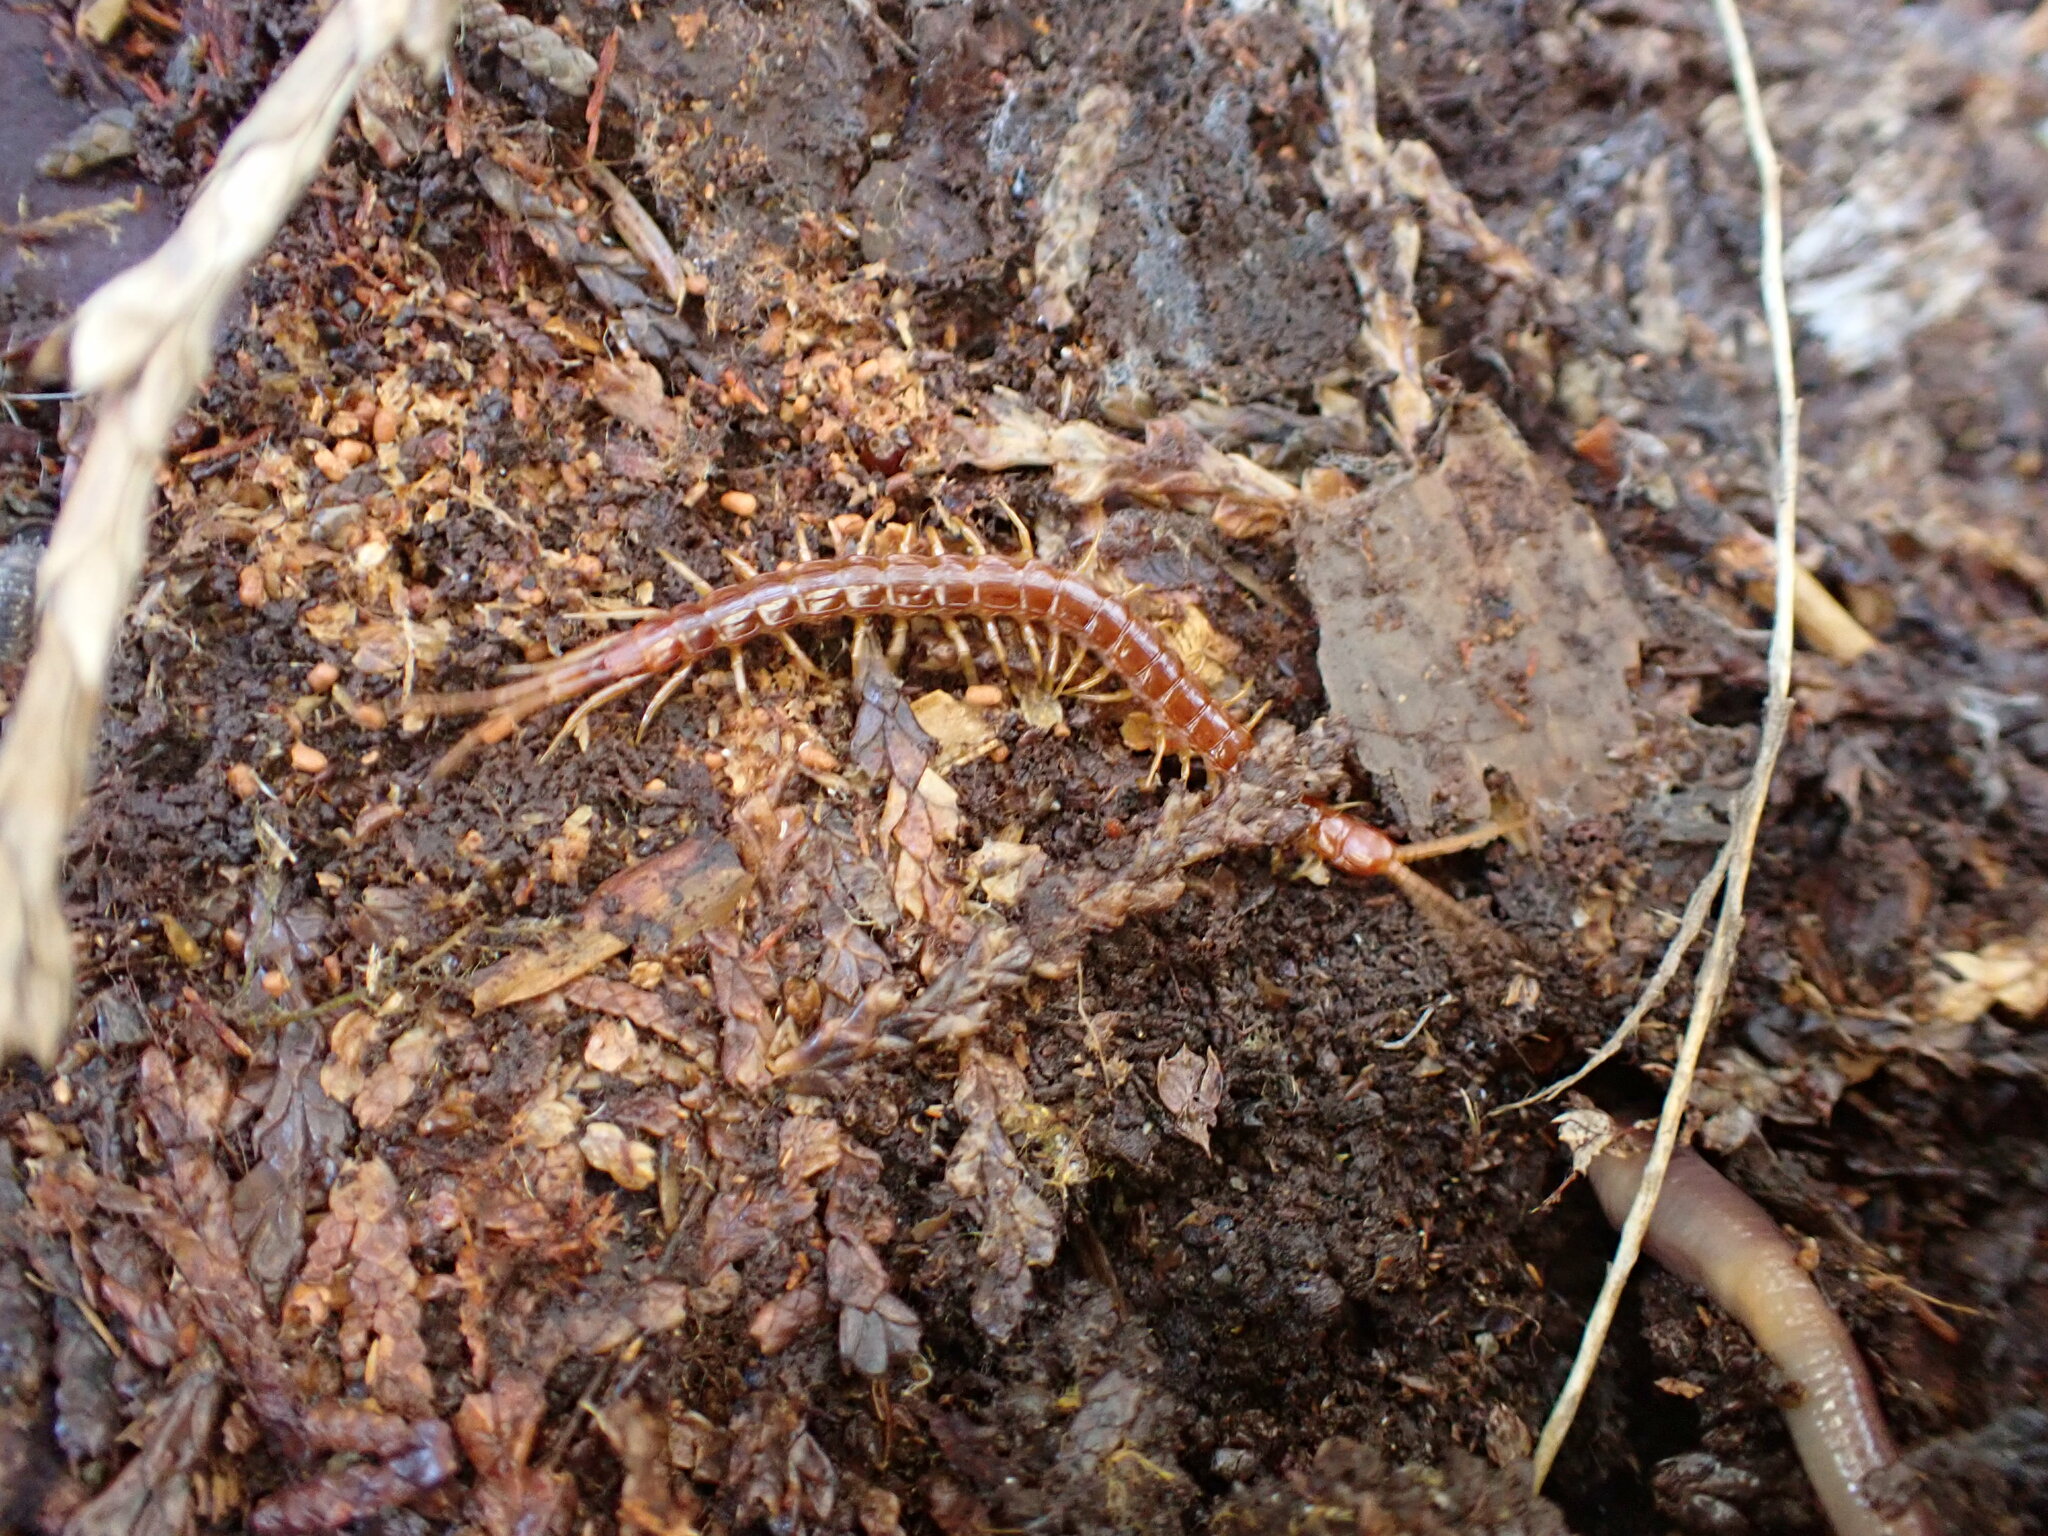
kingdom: Animalia
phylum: Arthropoda
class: Chilopoda
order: Scolopendromorpha
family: Scolopocryptopidae
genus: Scolopocryptops
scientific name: Scolopocryptops spinicaudus
